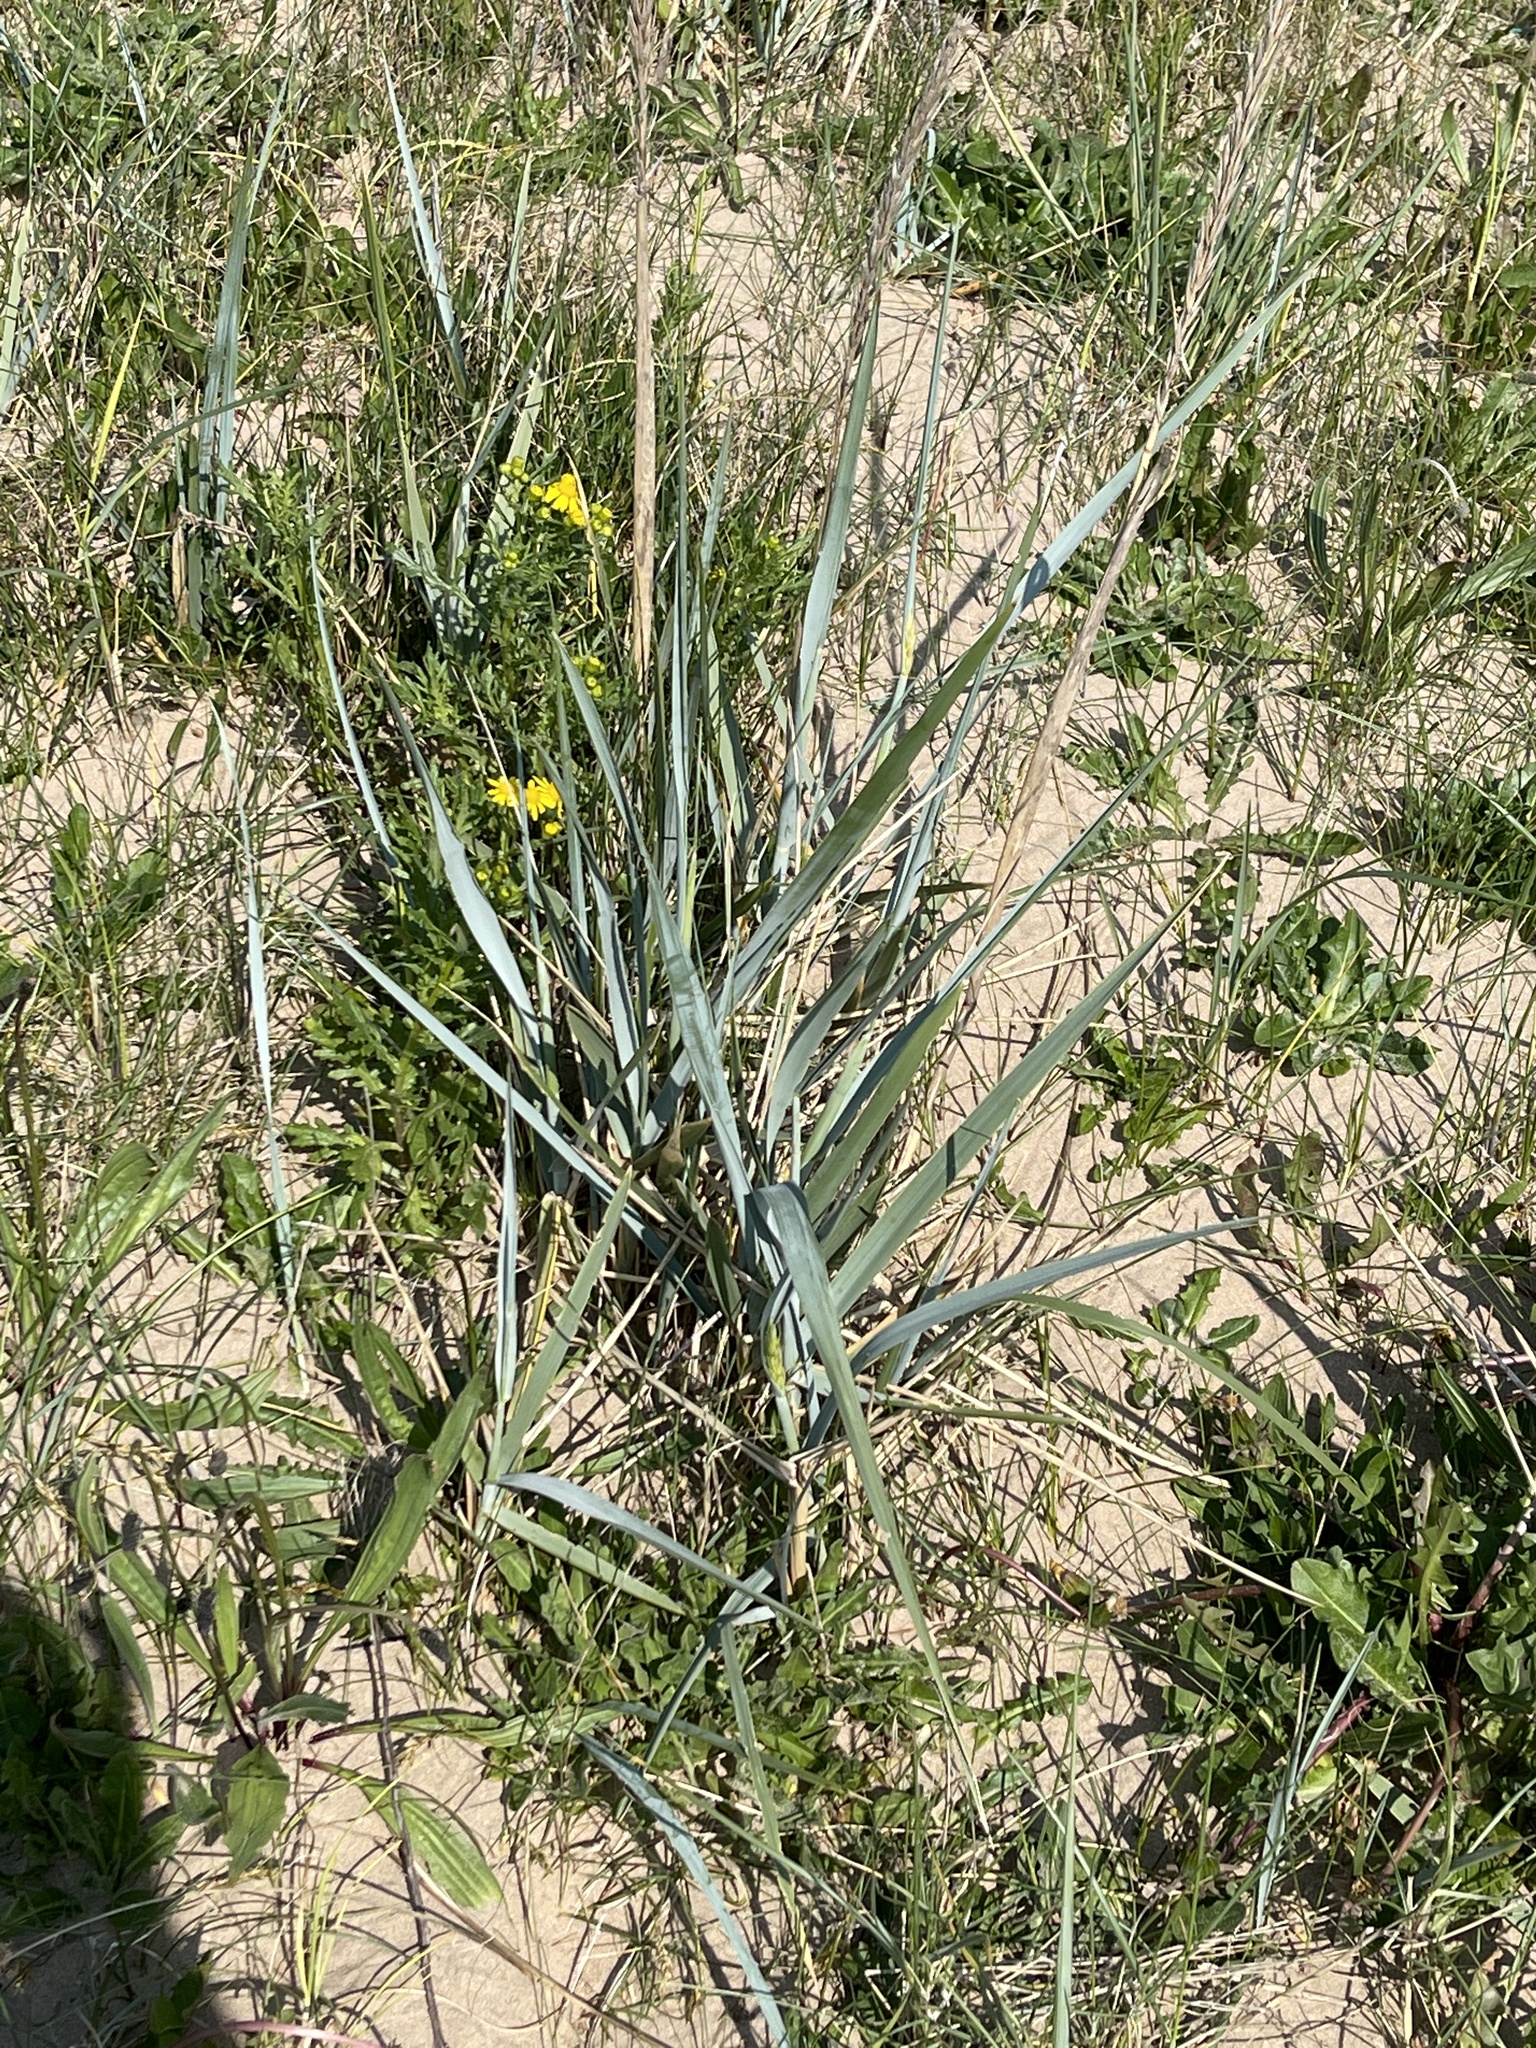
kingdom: Plantae
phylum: Tracheophyta
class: Liliopsida
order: Poales
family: Poaceae
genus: Leymus
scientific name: Leymus arenarius
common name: Lyme-grass
